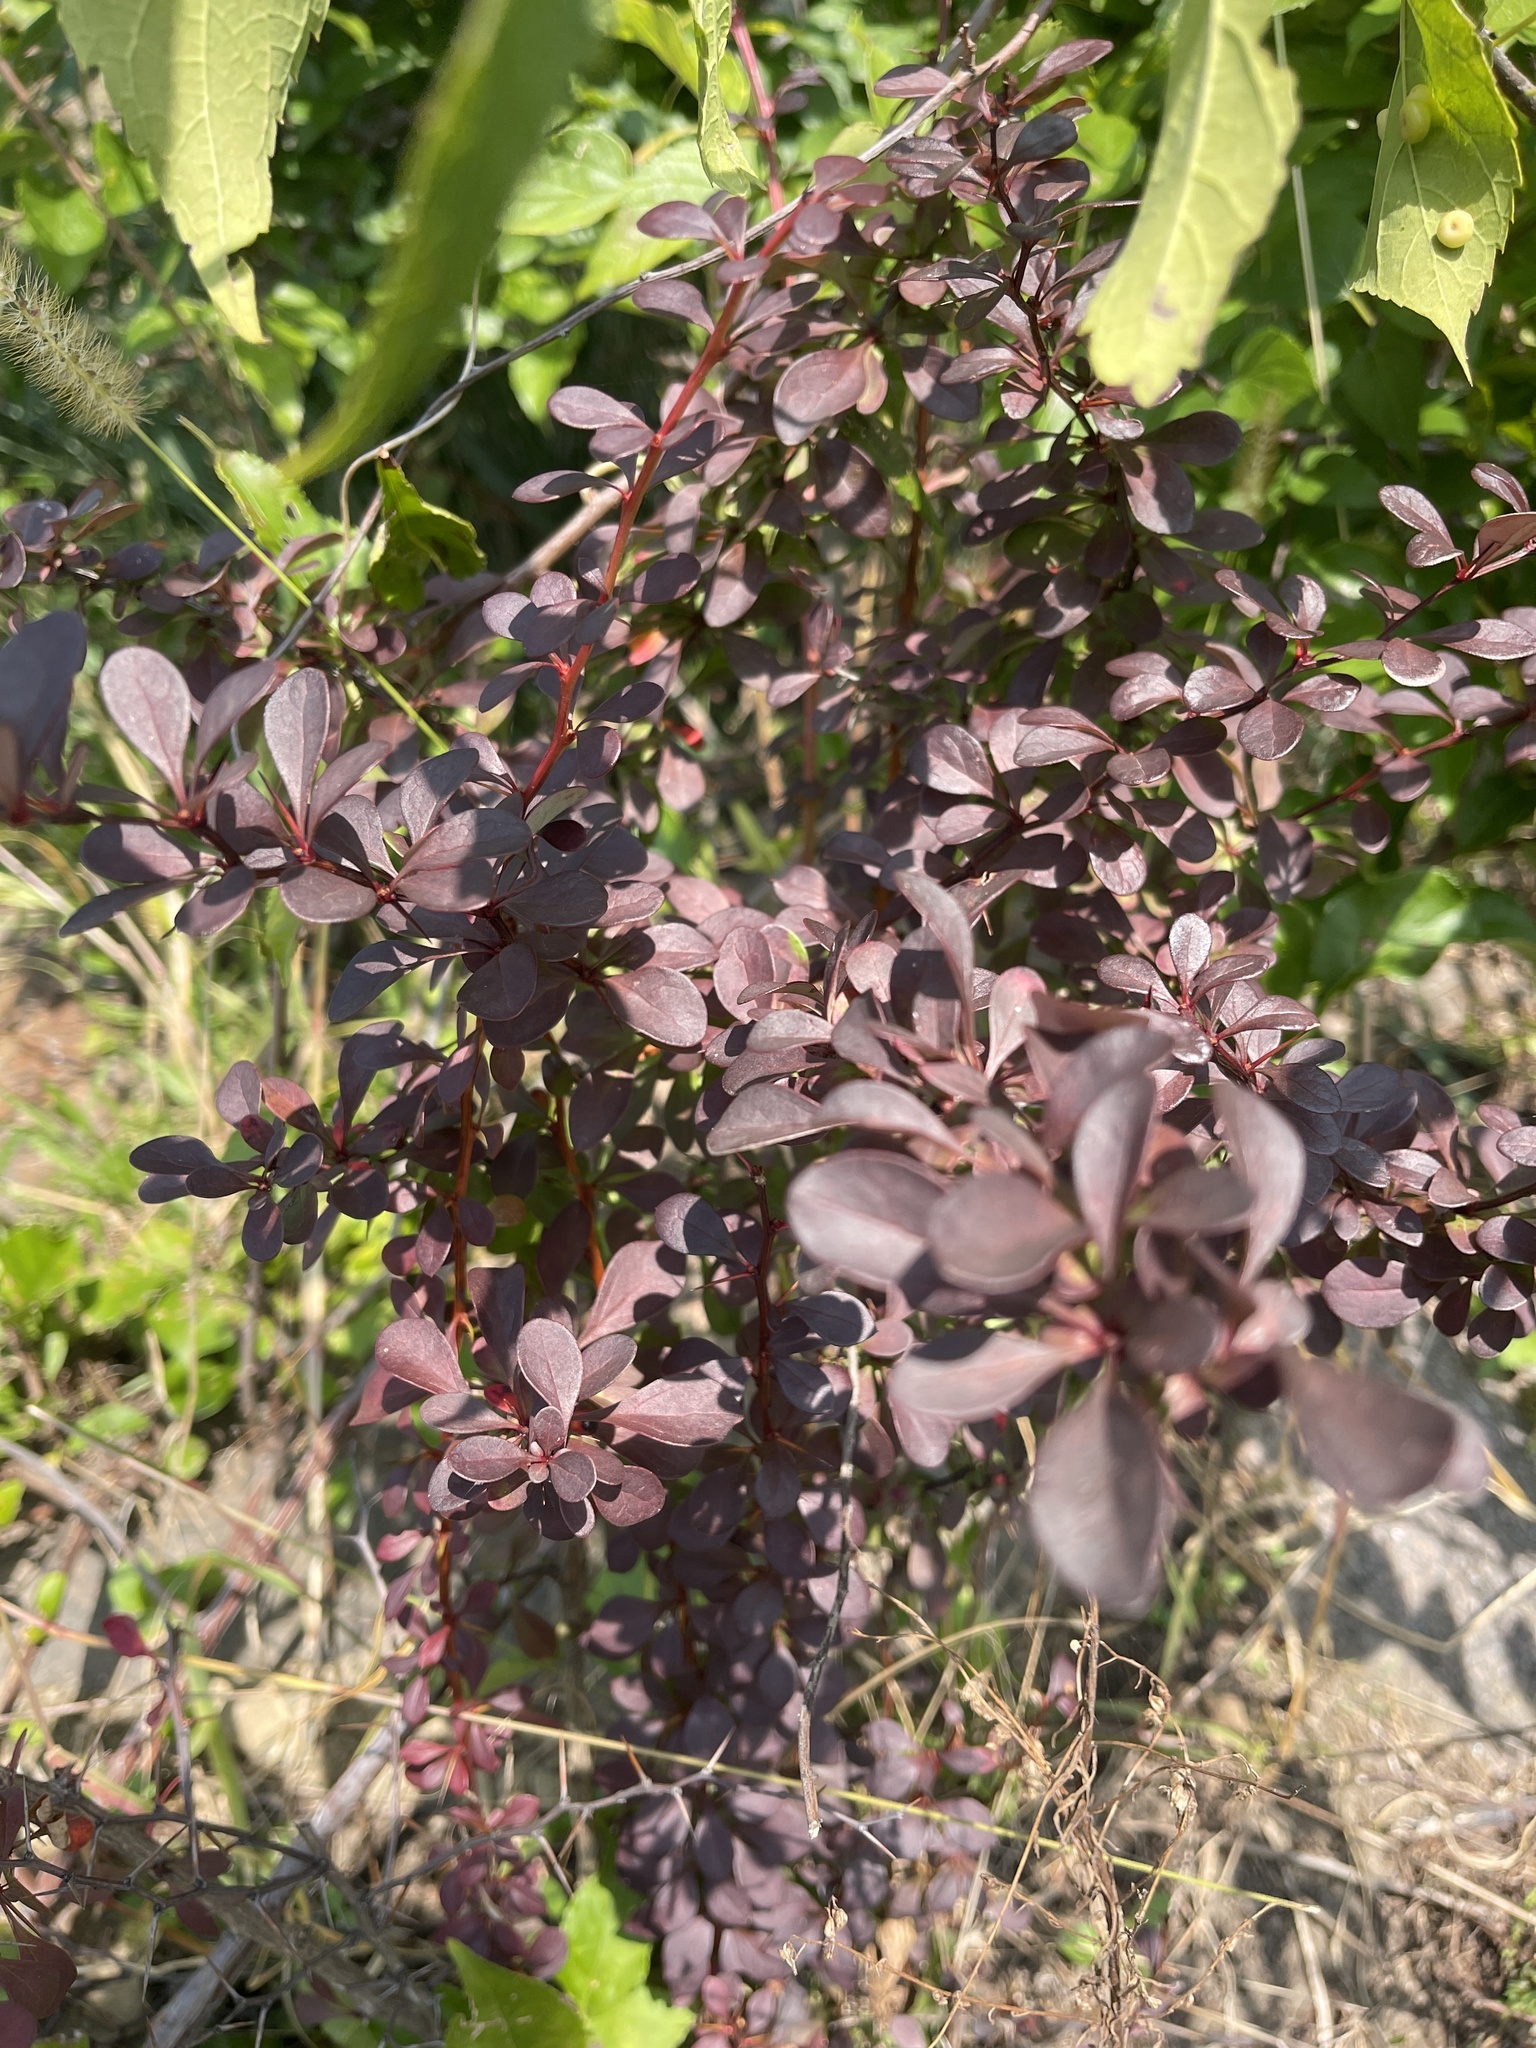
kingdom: Plantae
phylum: Tracheophyta
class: Magnoliopsida
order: Ranunculales
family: Berberidaceae
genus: Berberis
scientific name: Berberis thunbergii
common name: Japanese barberry
